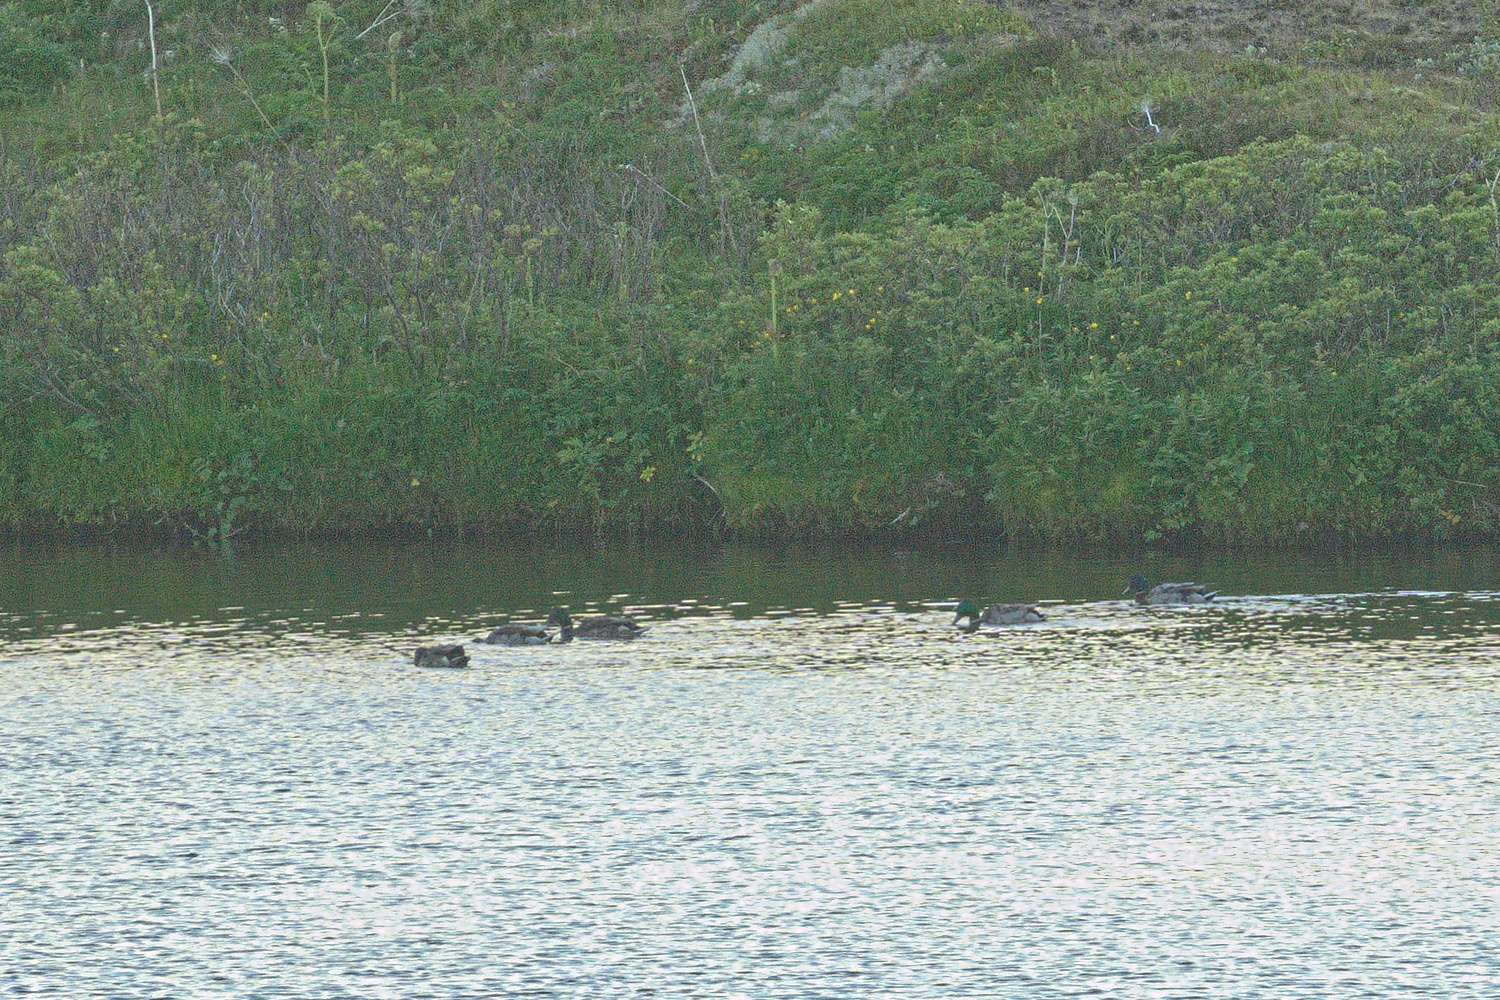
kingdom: Animalia
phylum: Chordata
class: Aves
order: Anseriformes
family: Anatidae
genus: Anas
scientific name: Anas platyrhynchos
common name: Mallard
